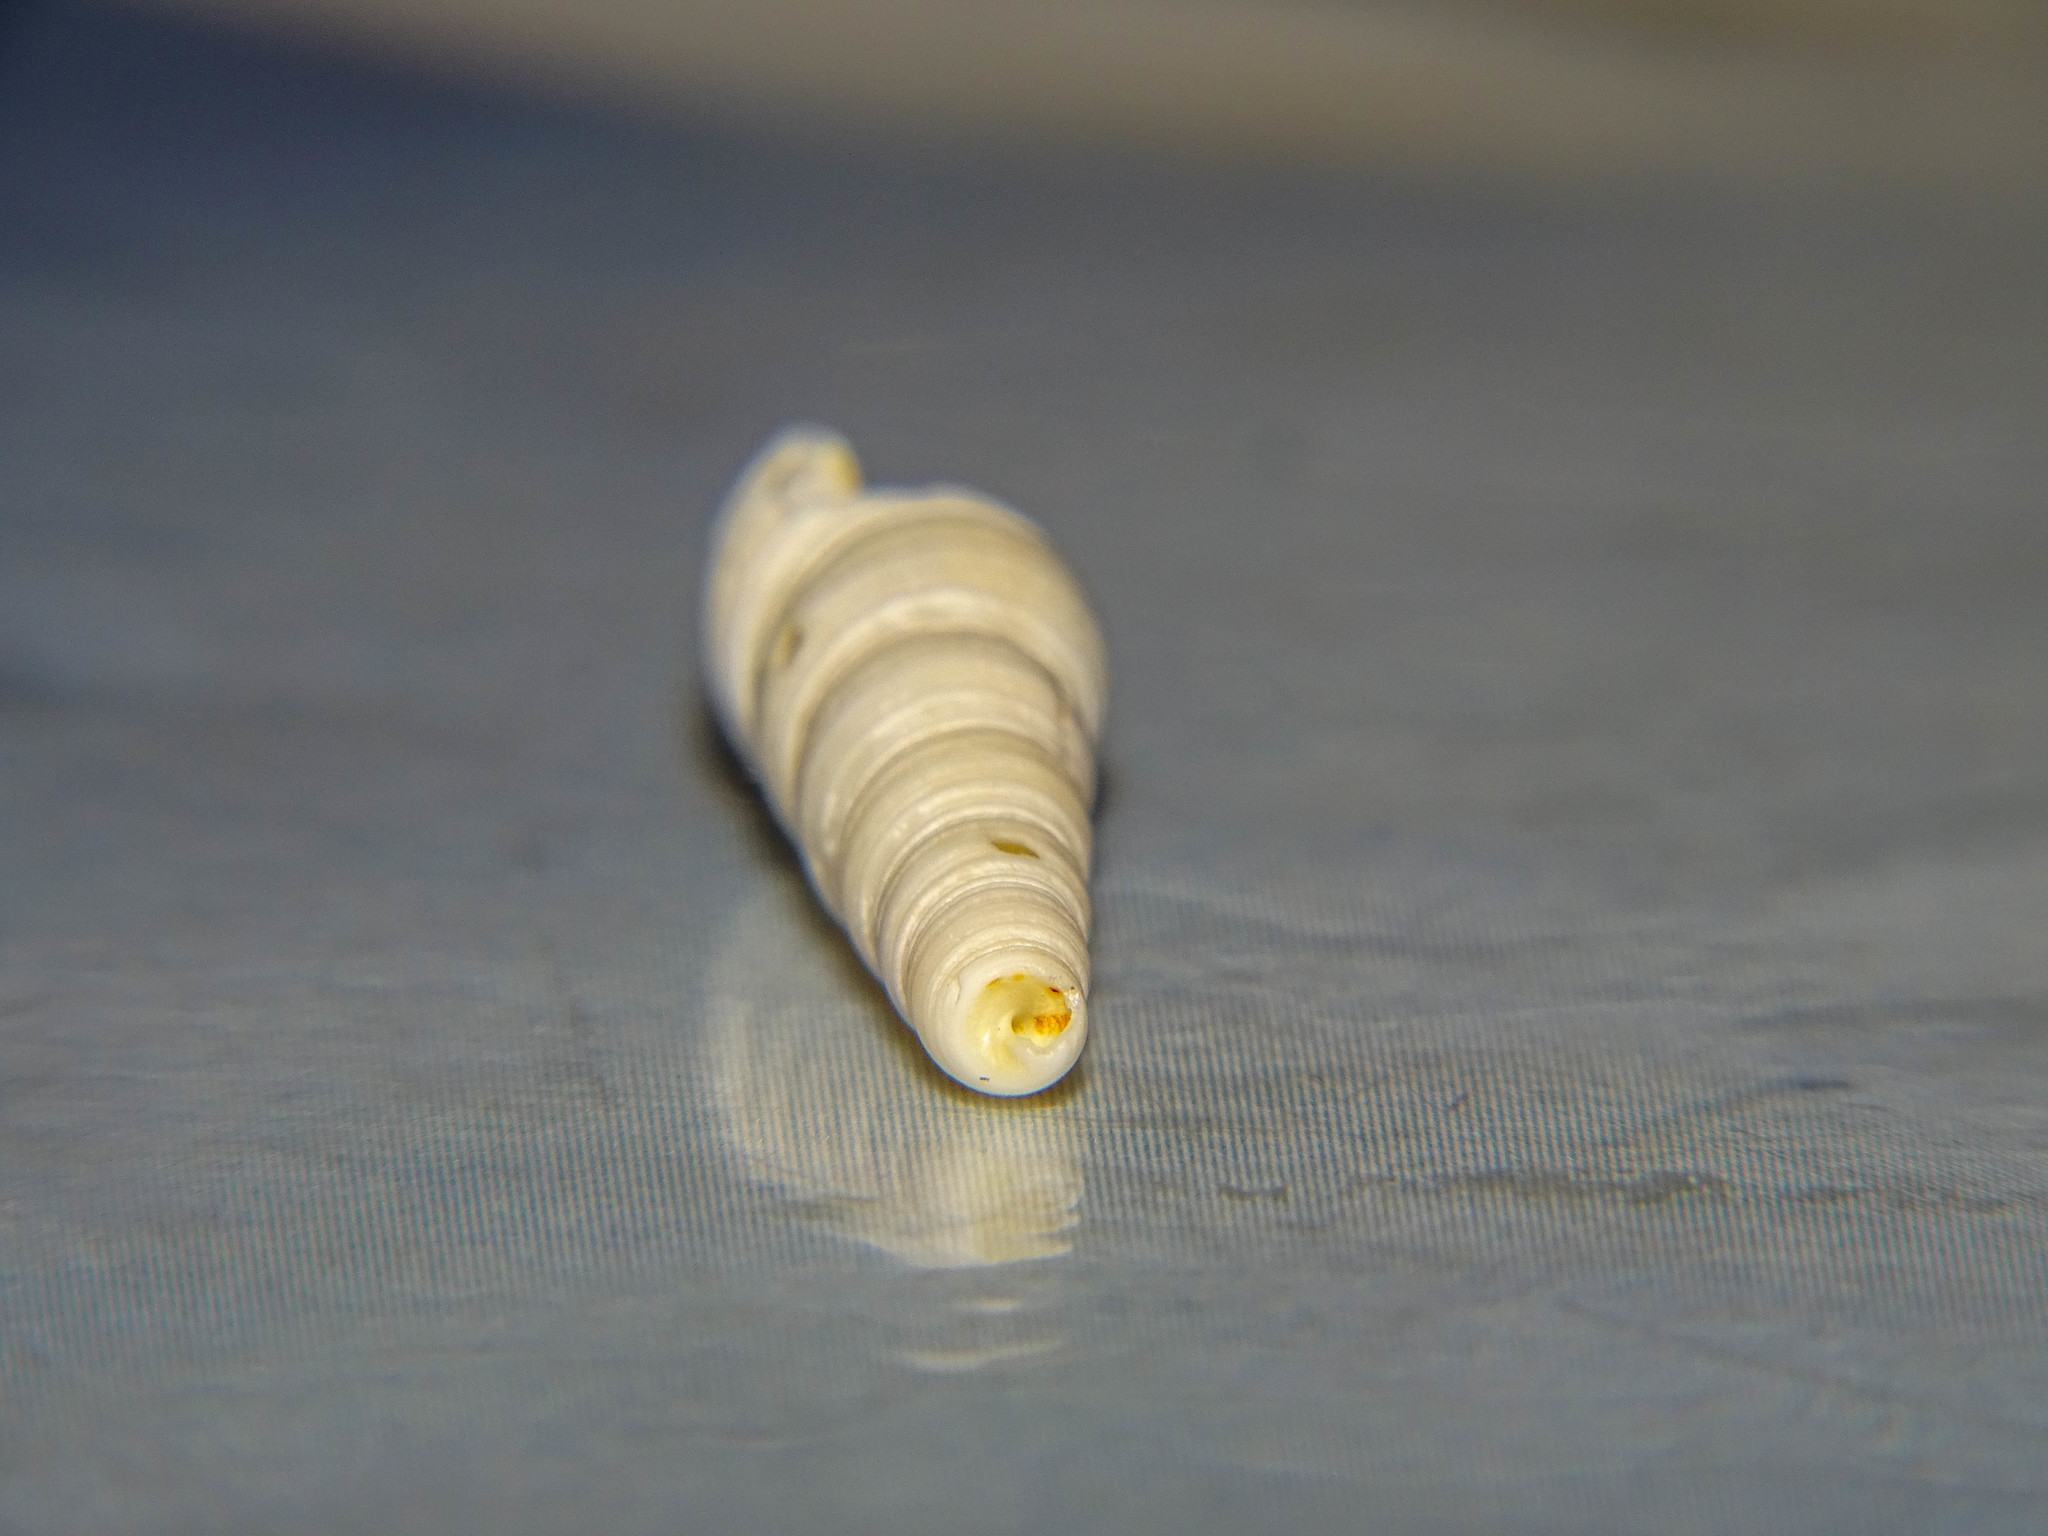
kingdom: Animalia
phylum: Mollusca
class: Gastropoda
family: Turritellidae
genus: Turritellinella
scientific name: Turritellinella tricarinata
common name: Auger shell
